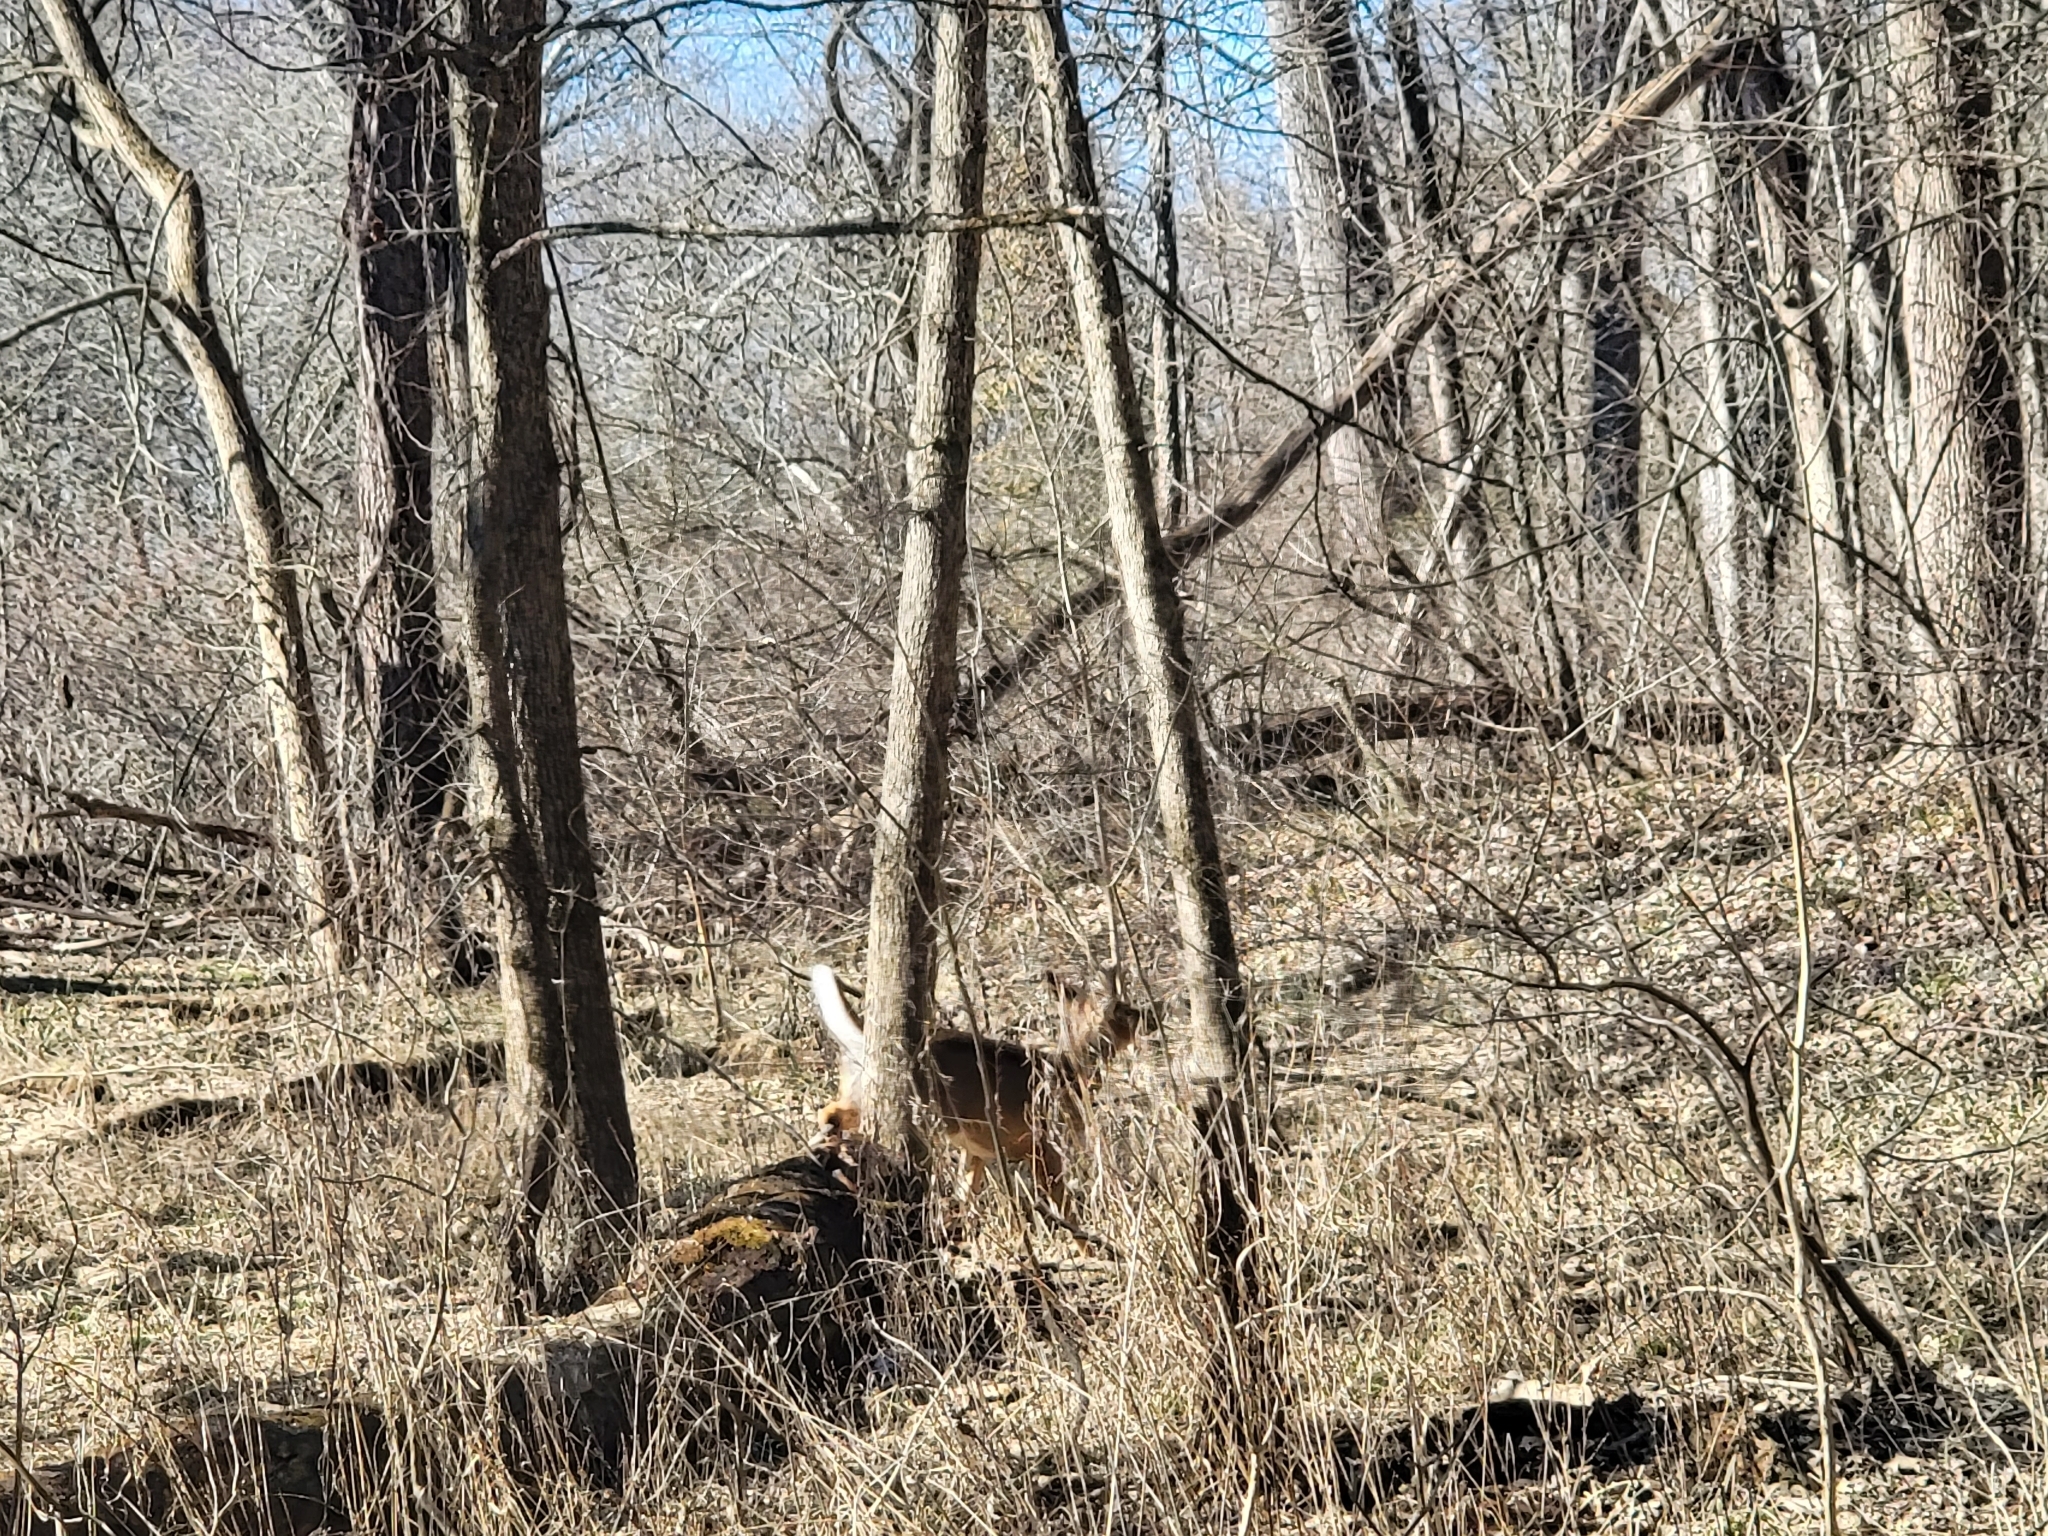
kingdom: Animalia
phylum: Chordata
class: Mammalia
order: Artiodactyla
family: Cervidae
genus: Odocoileus
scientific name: Odocoileus virginianus
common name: White-tailed deer
